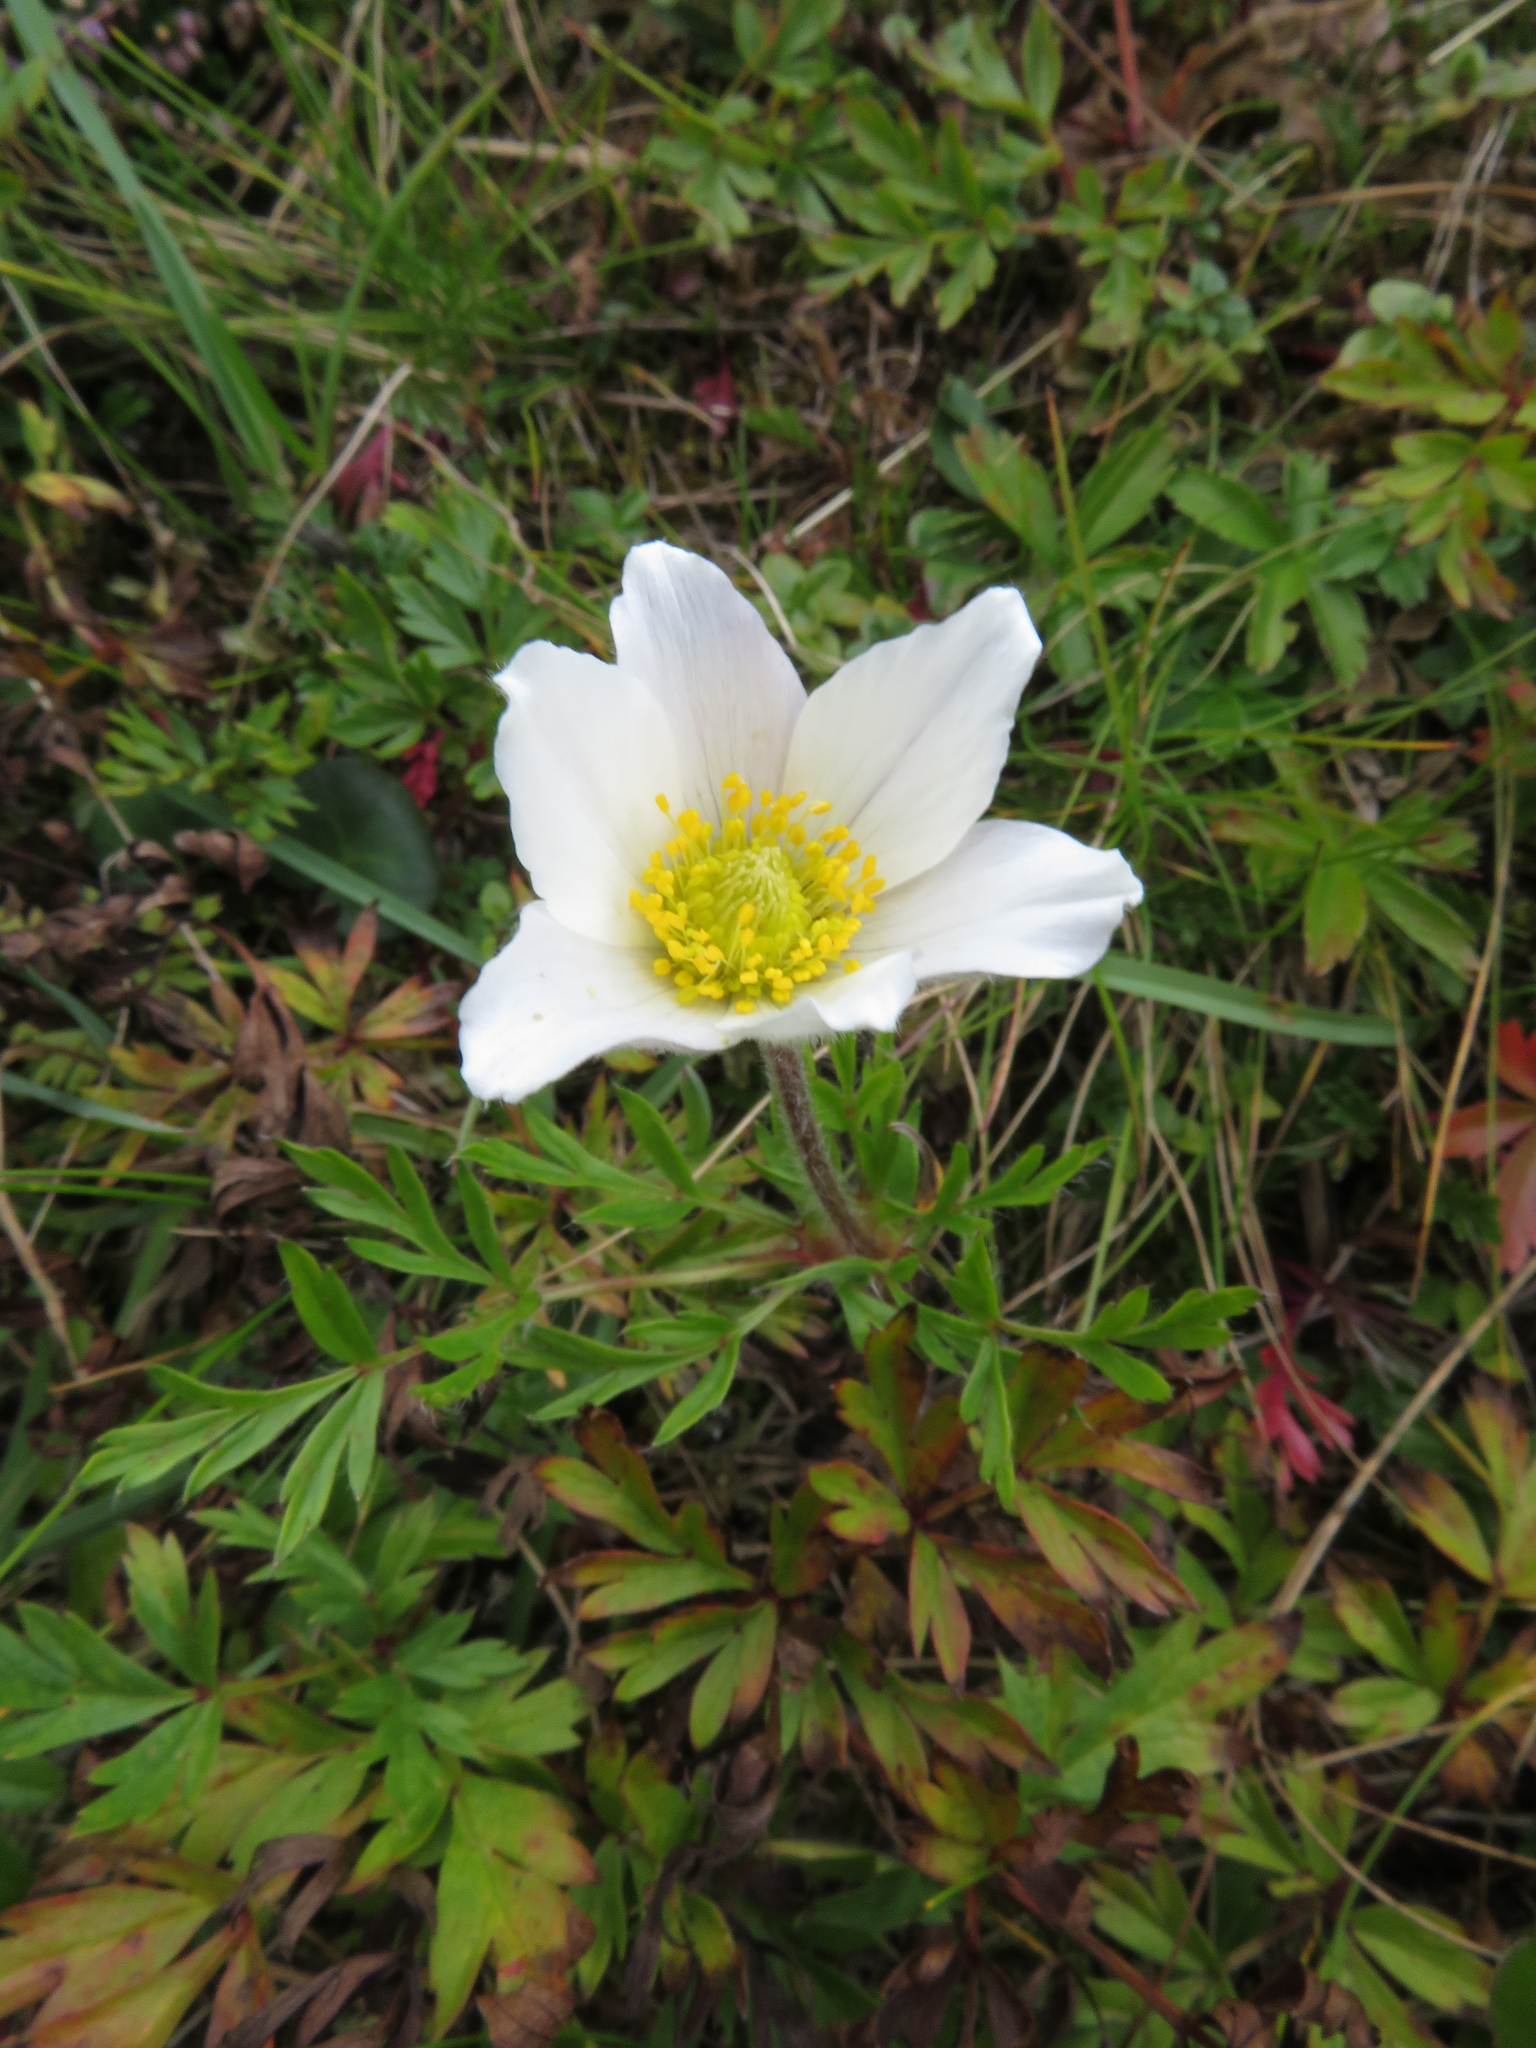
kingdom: Plantae
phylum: Tracheophyta
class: Magnoliopsida
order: Ranunculales
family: Ranunculaceae
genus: Pulsatilla
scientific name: Pulsatilla alpina
